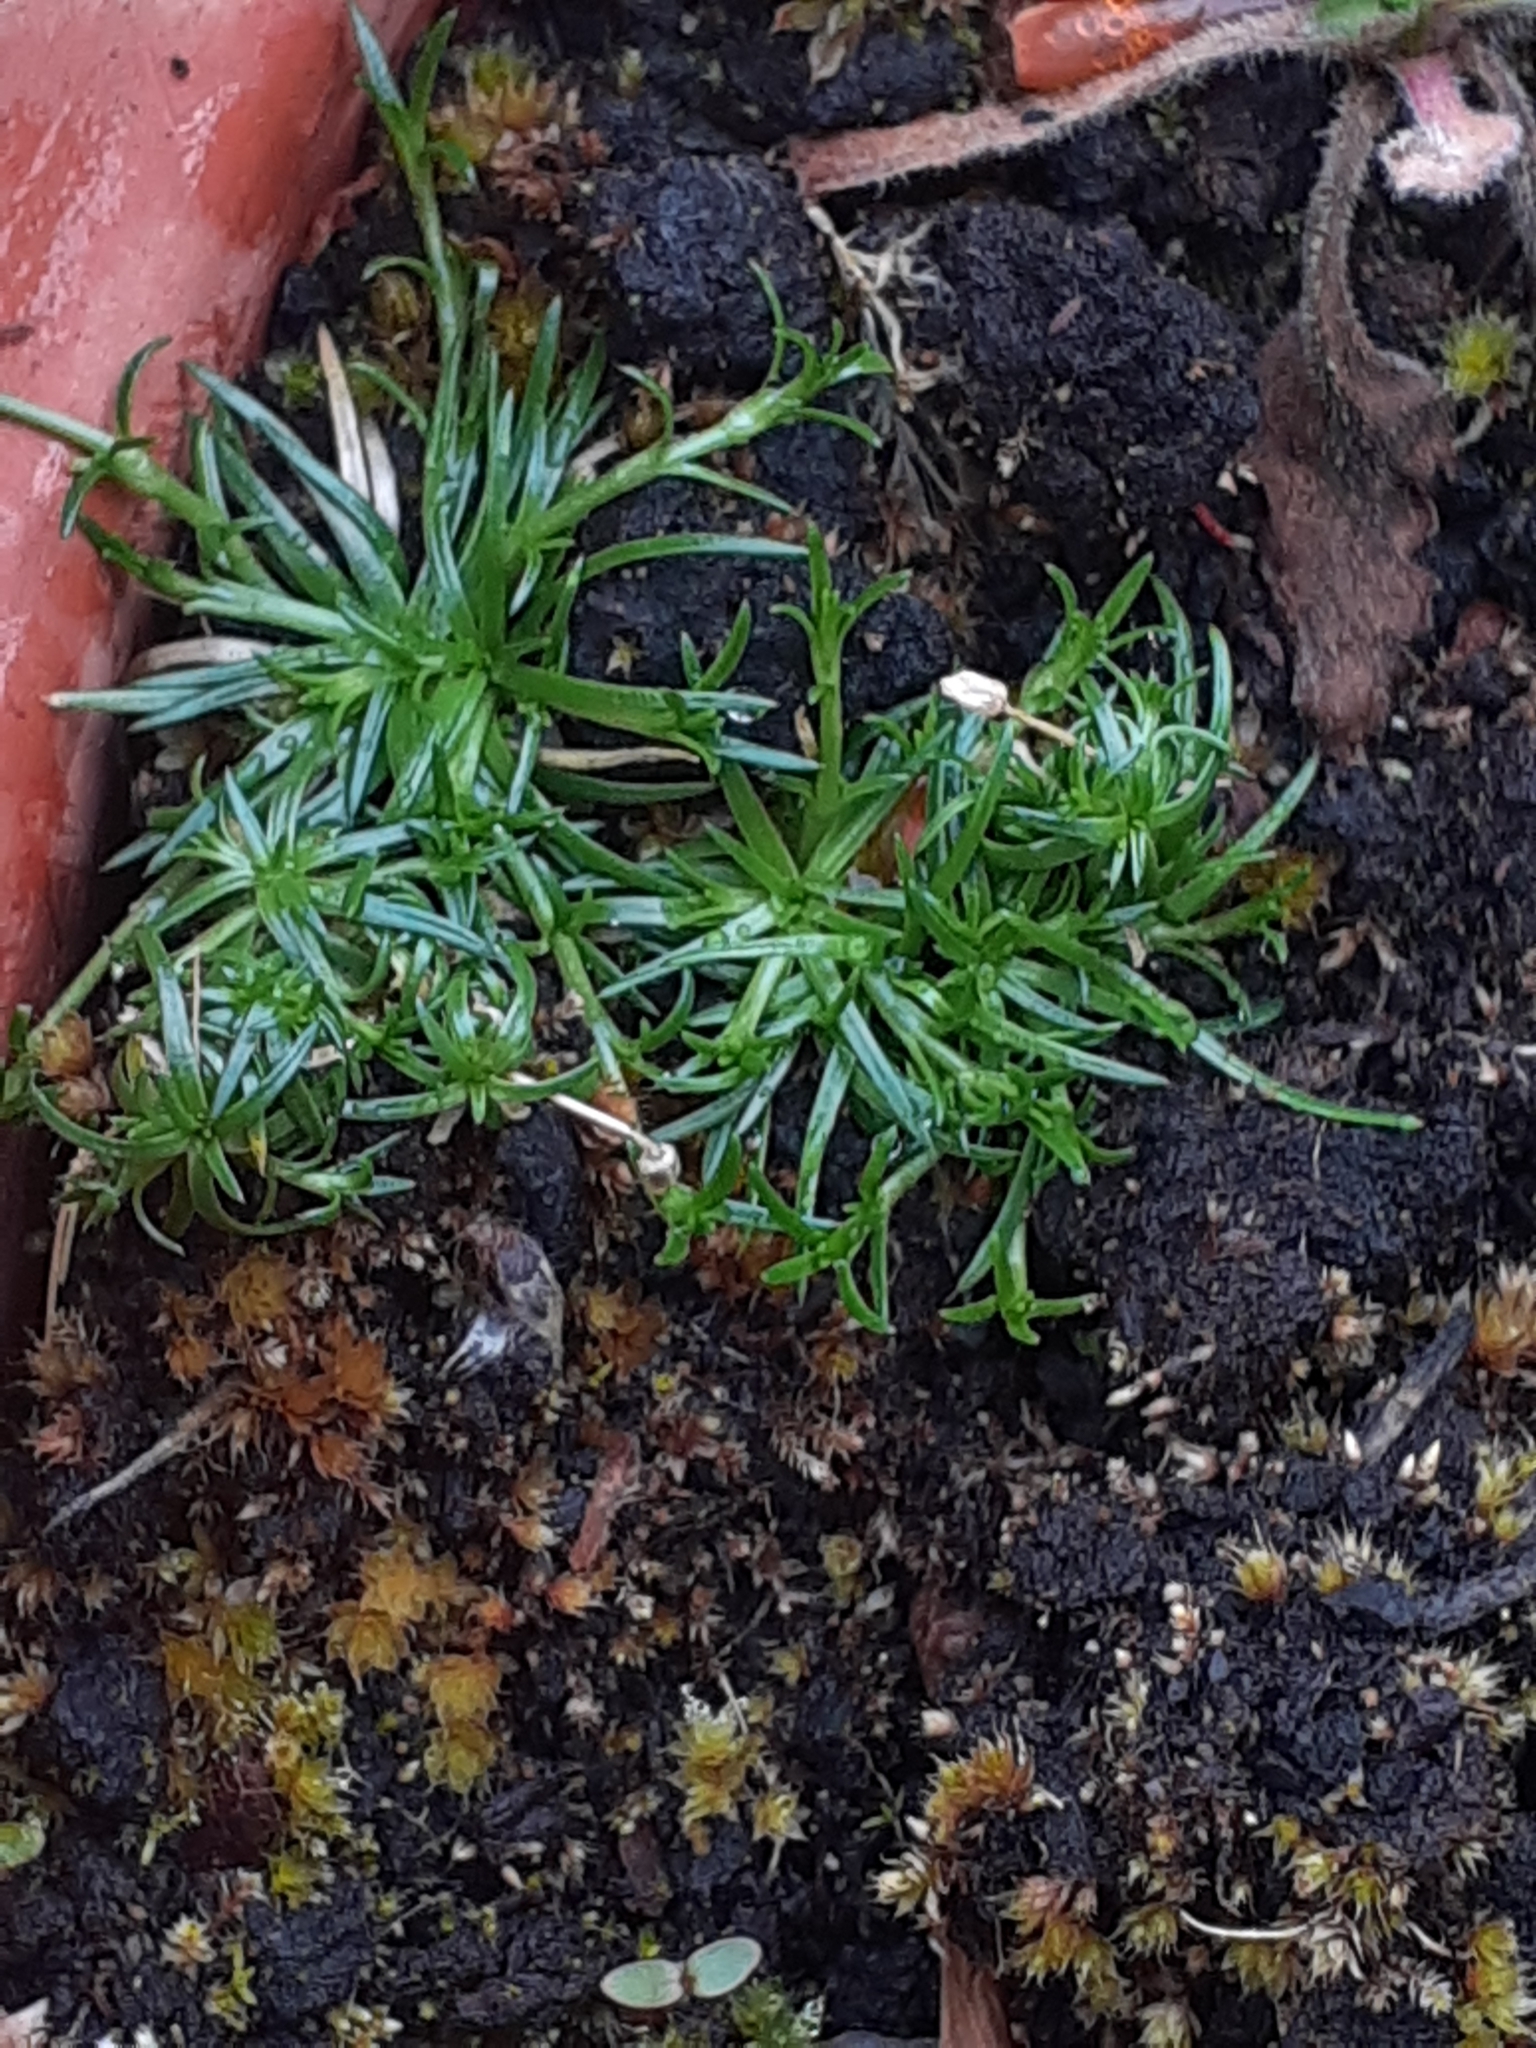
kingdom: Plantae
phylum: Tracheophyta
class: Magnoliopsida
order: Caryophyllales
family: Caryophyllaceae
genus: Sagina
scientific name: Sagina procumbens
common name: Procumbent pearlwort
